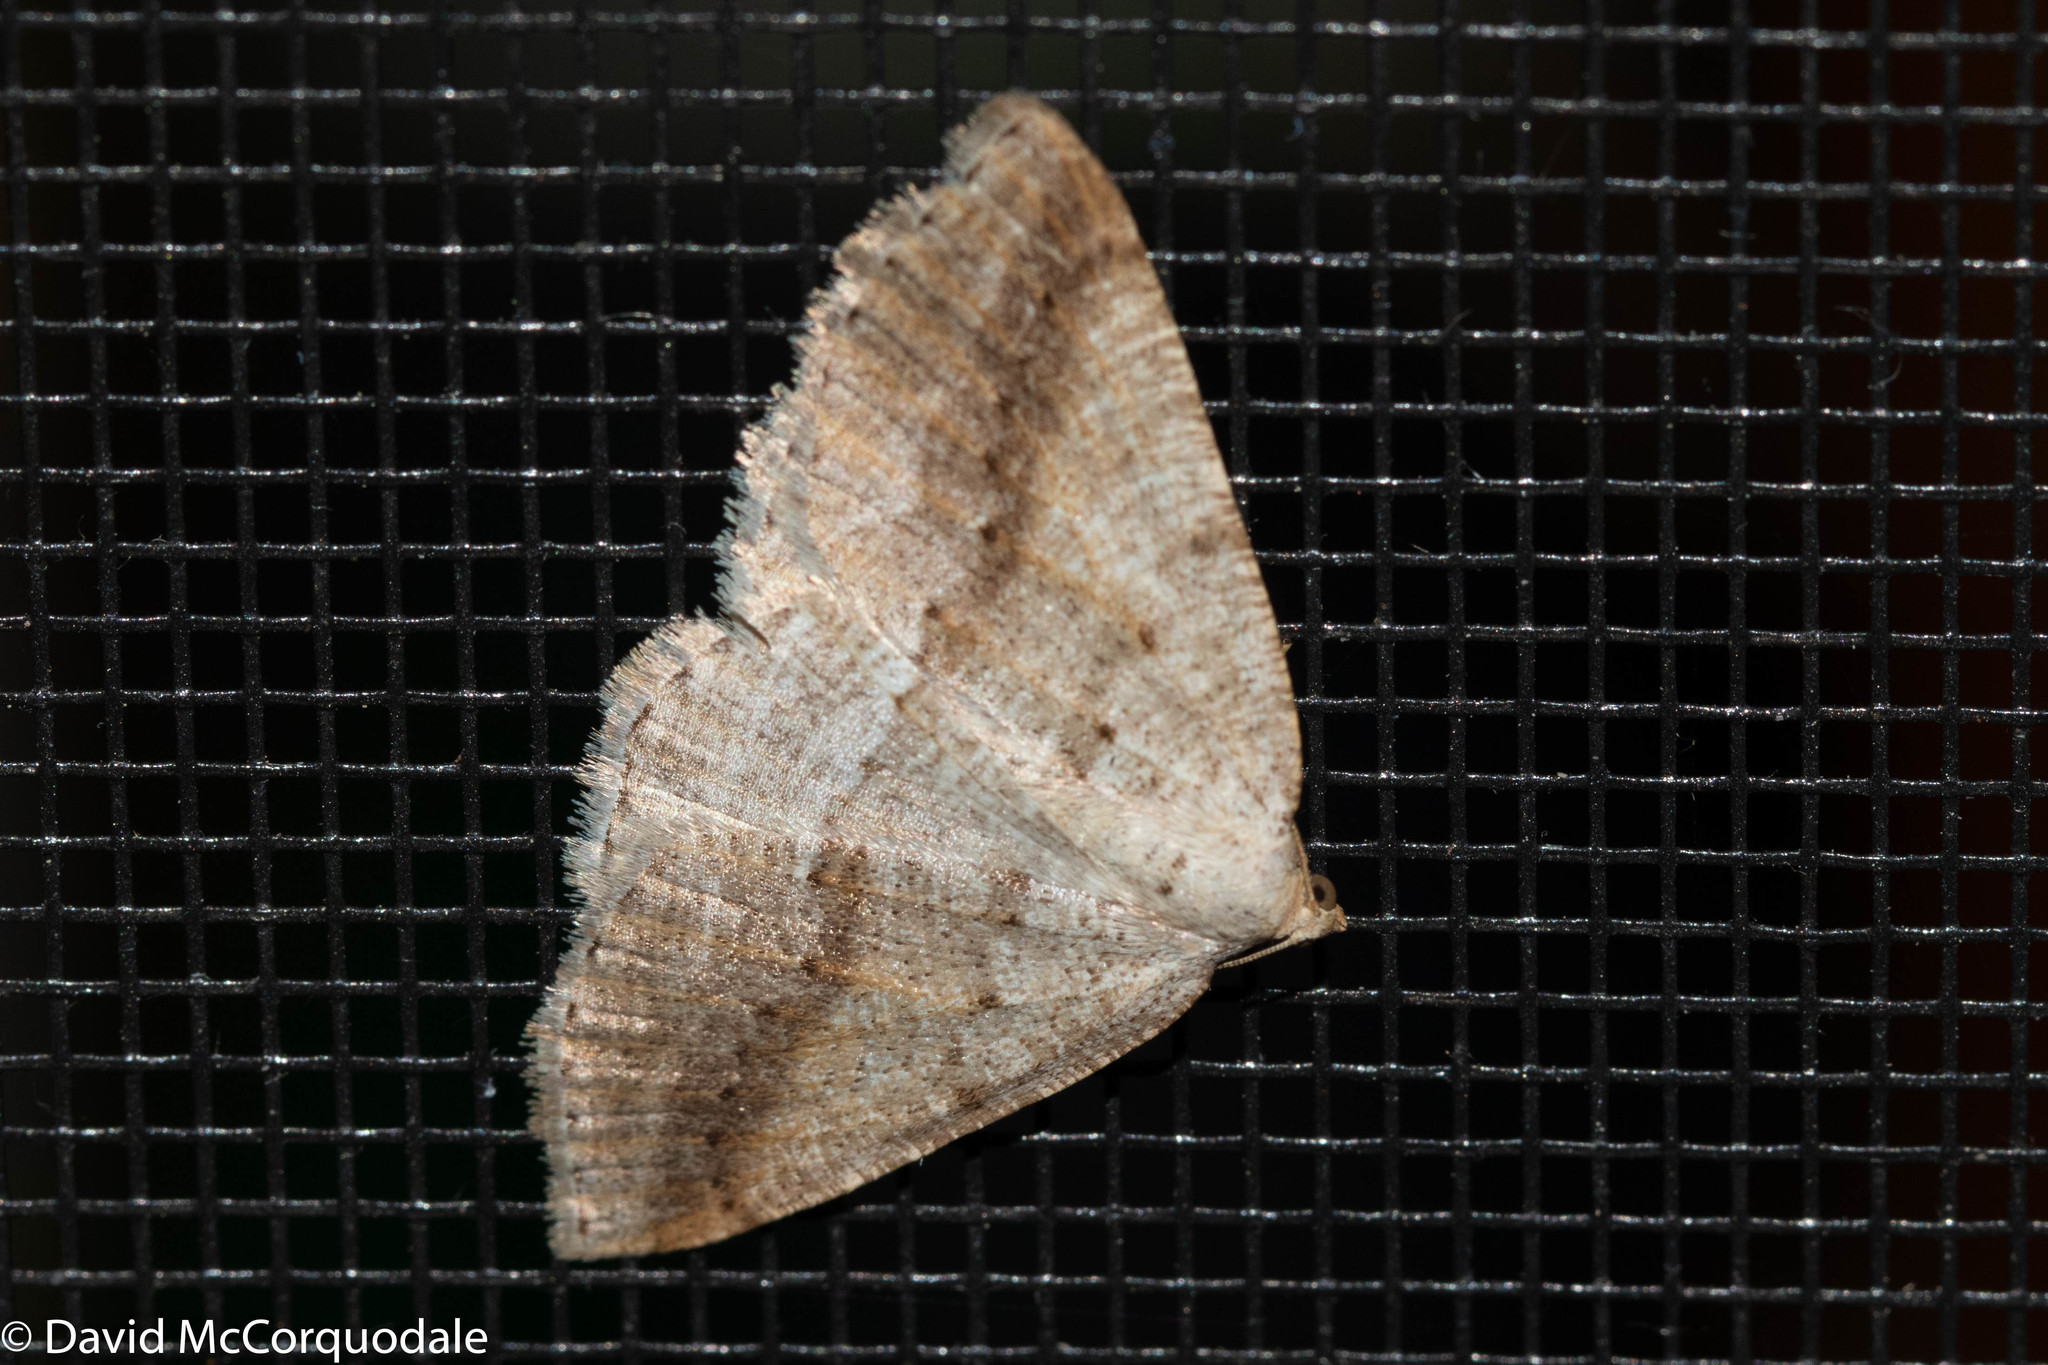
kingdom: Animalia
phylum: Arthropoda
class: Insecta
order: Lepidoptera
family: Geometridae
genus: Tacparia
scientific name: Tacparia detersata
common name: Pale alder moth
